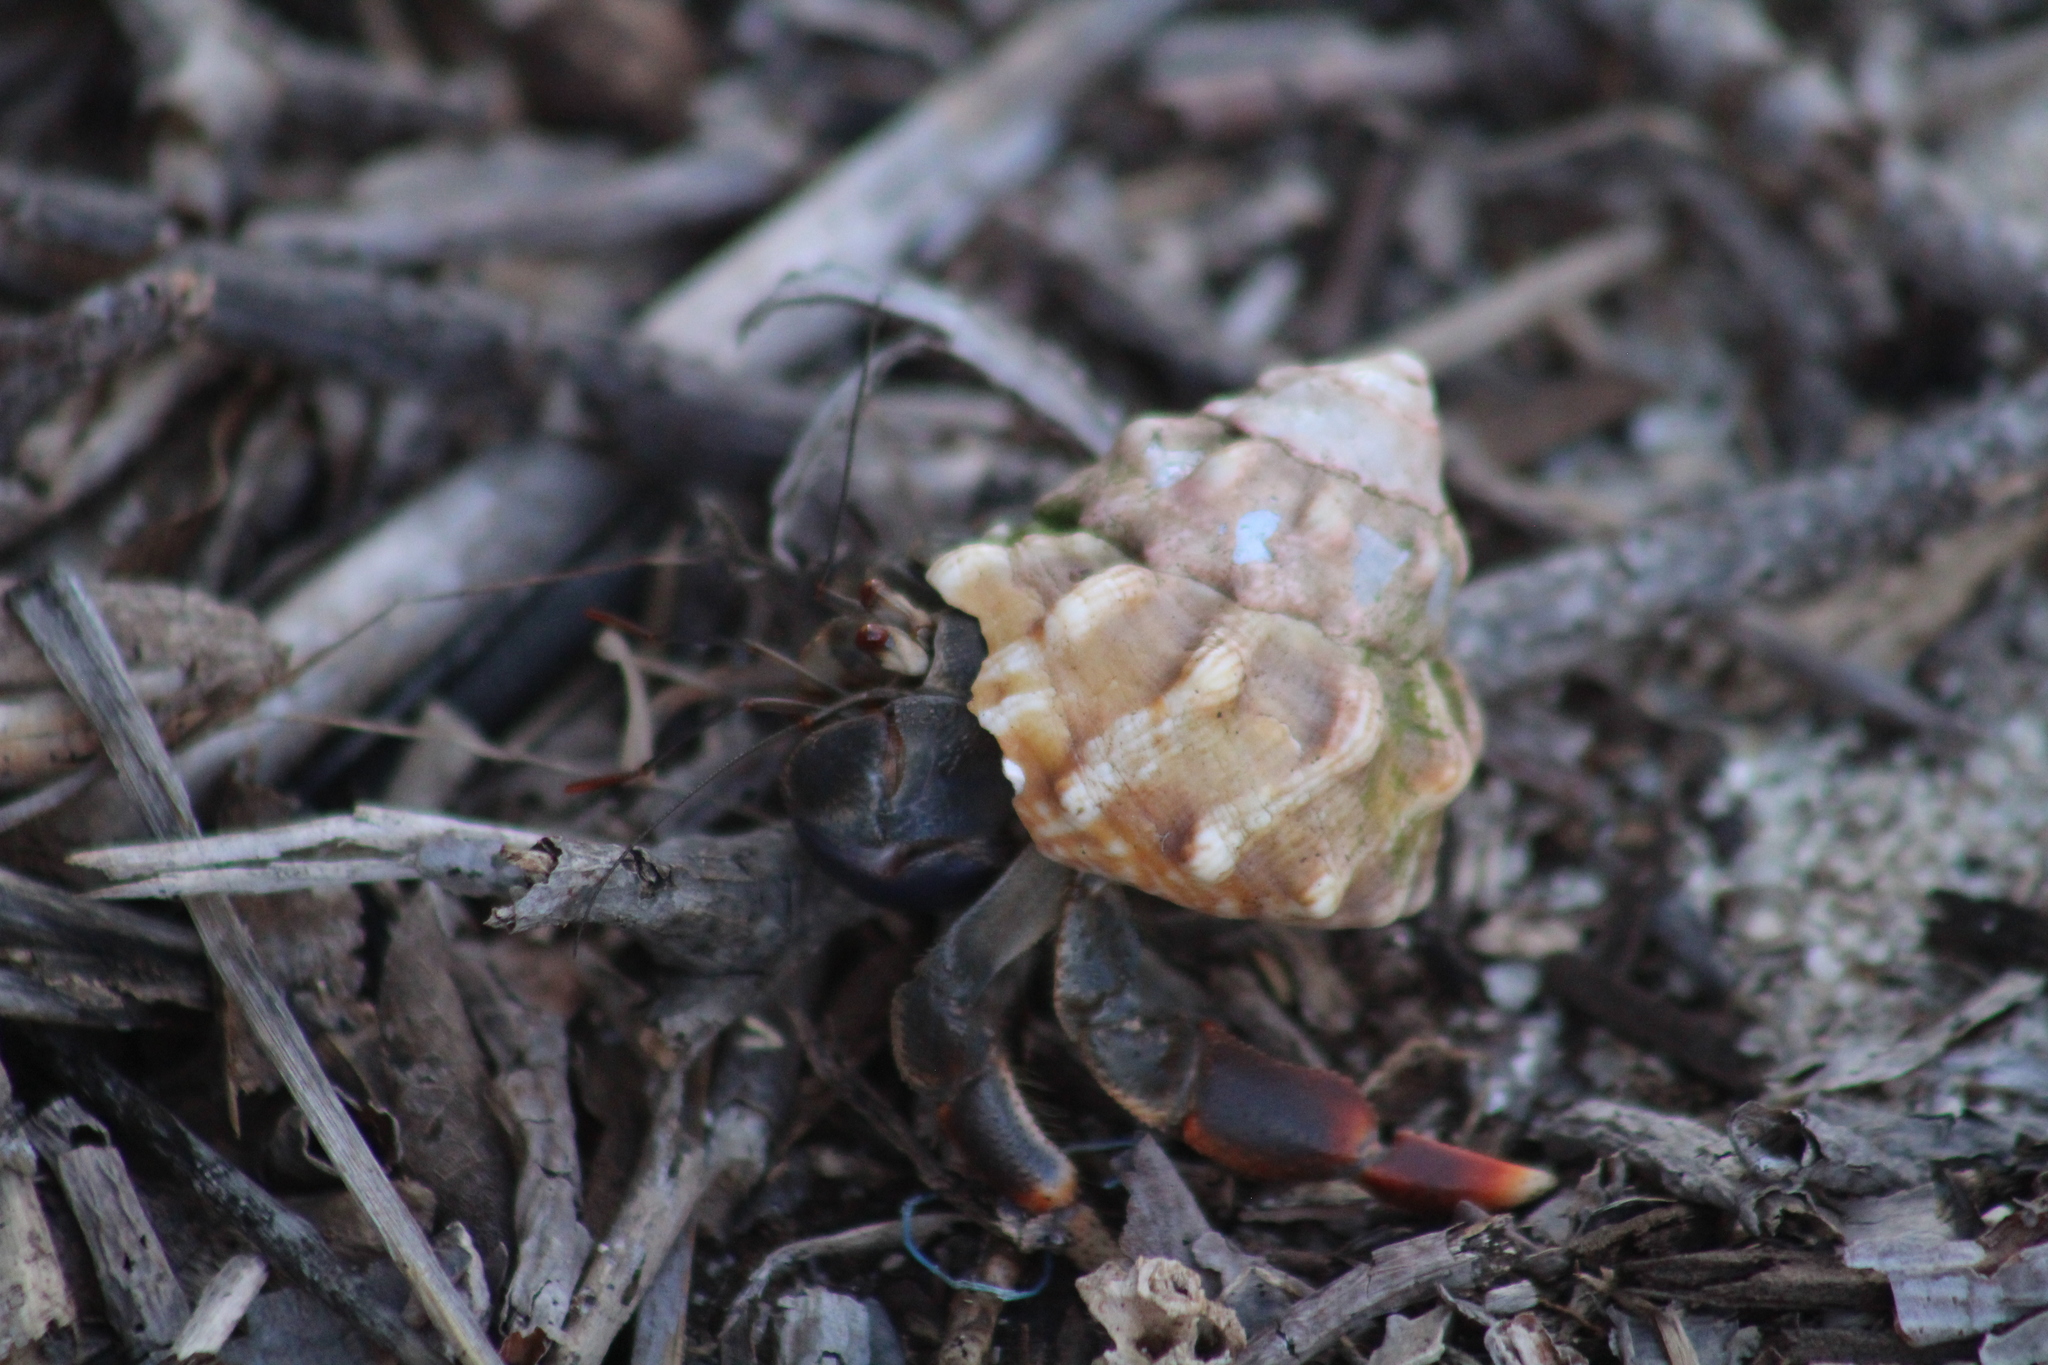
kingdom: Animalia
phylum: Arthropoda
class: Malacostraca
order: Decapoda
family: Coenobitidae
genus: Coenobita
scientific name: Coenobita clypeatus
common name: Caribbean hermit crab
